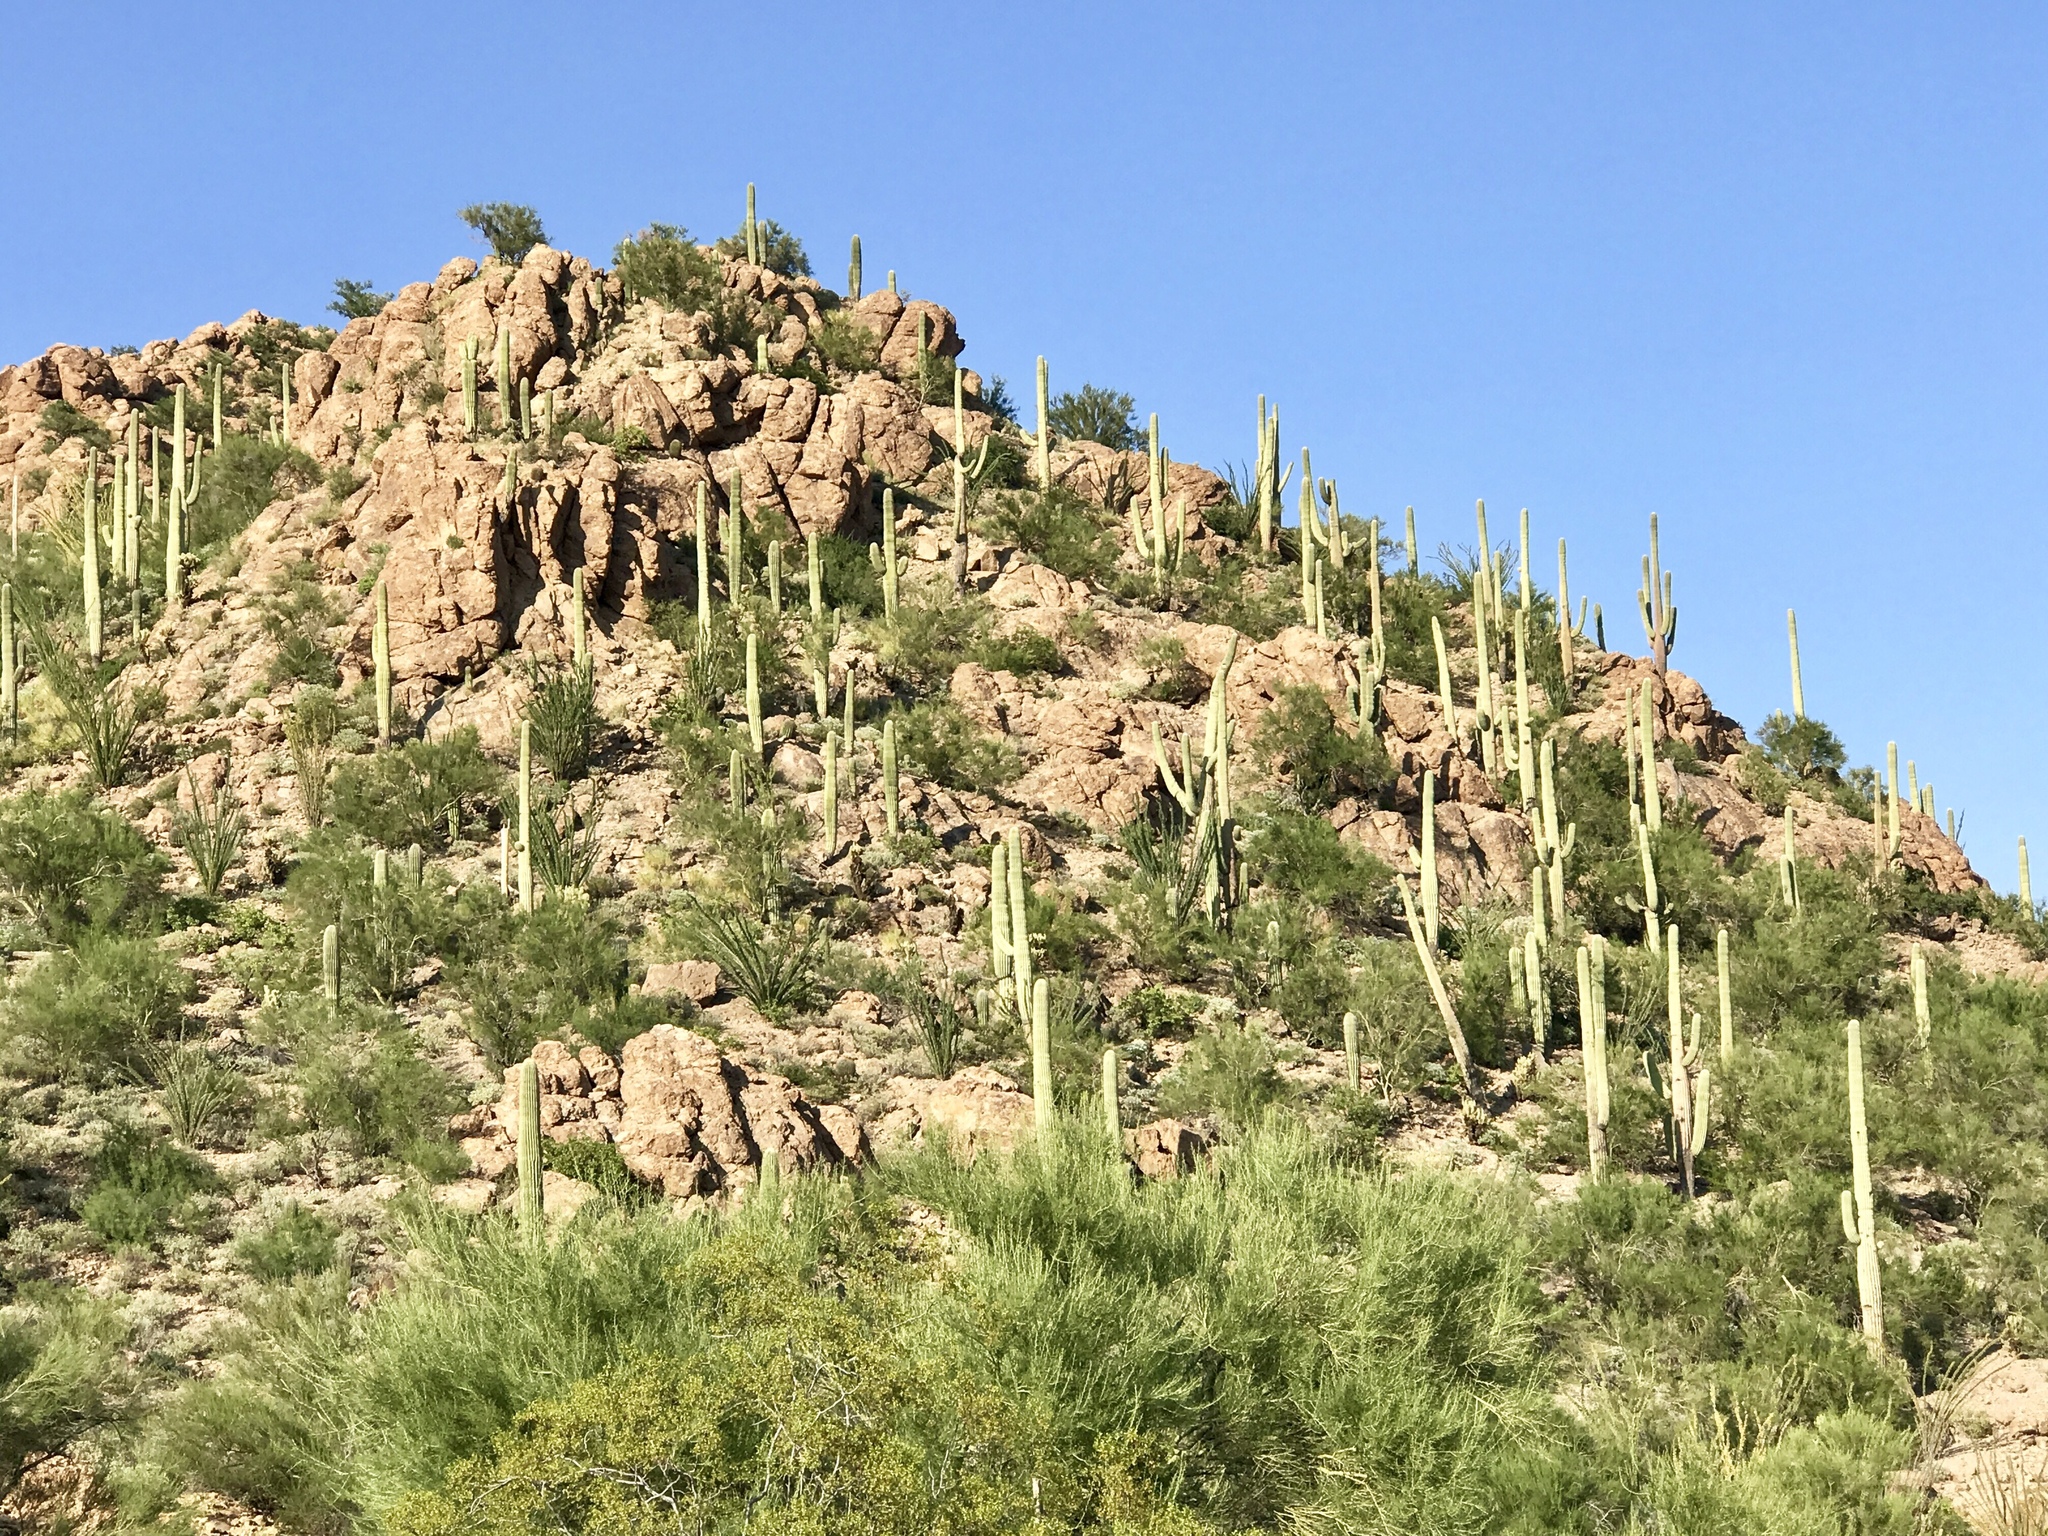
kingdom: Plantae
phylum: Tracheophyta
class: Magnoliopsida
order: Caryophyllales
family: Cactaceae
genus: Carnegiea
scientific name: Carnegiea gigantea
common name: Saguaro
